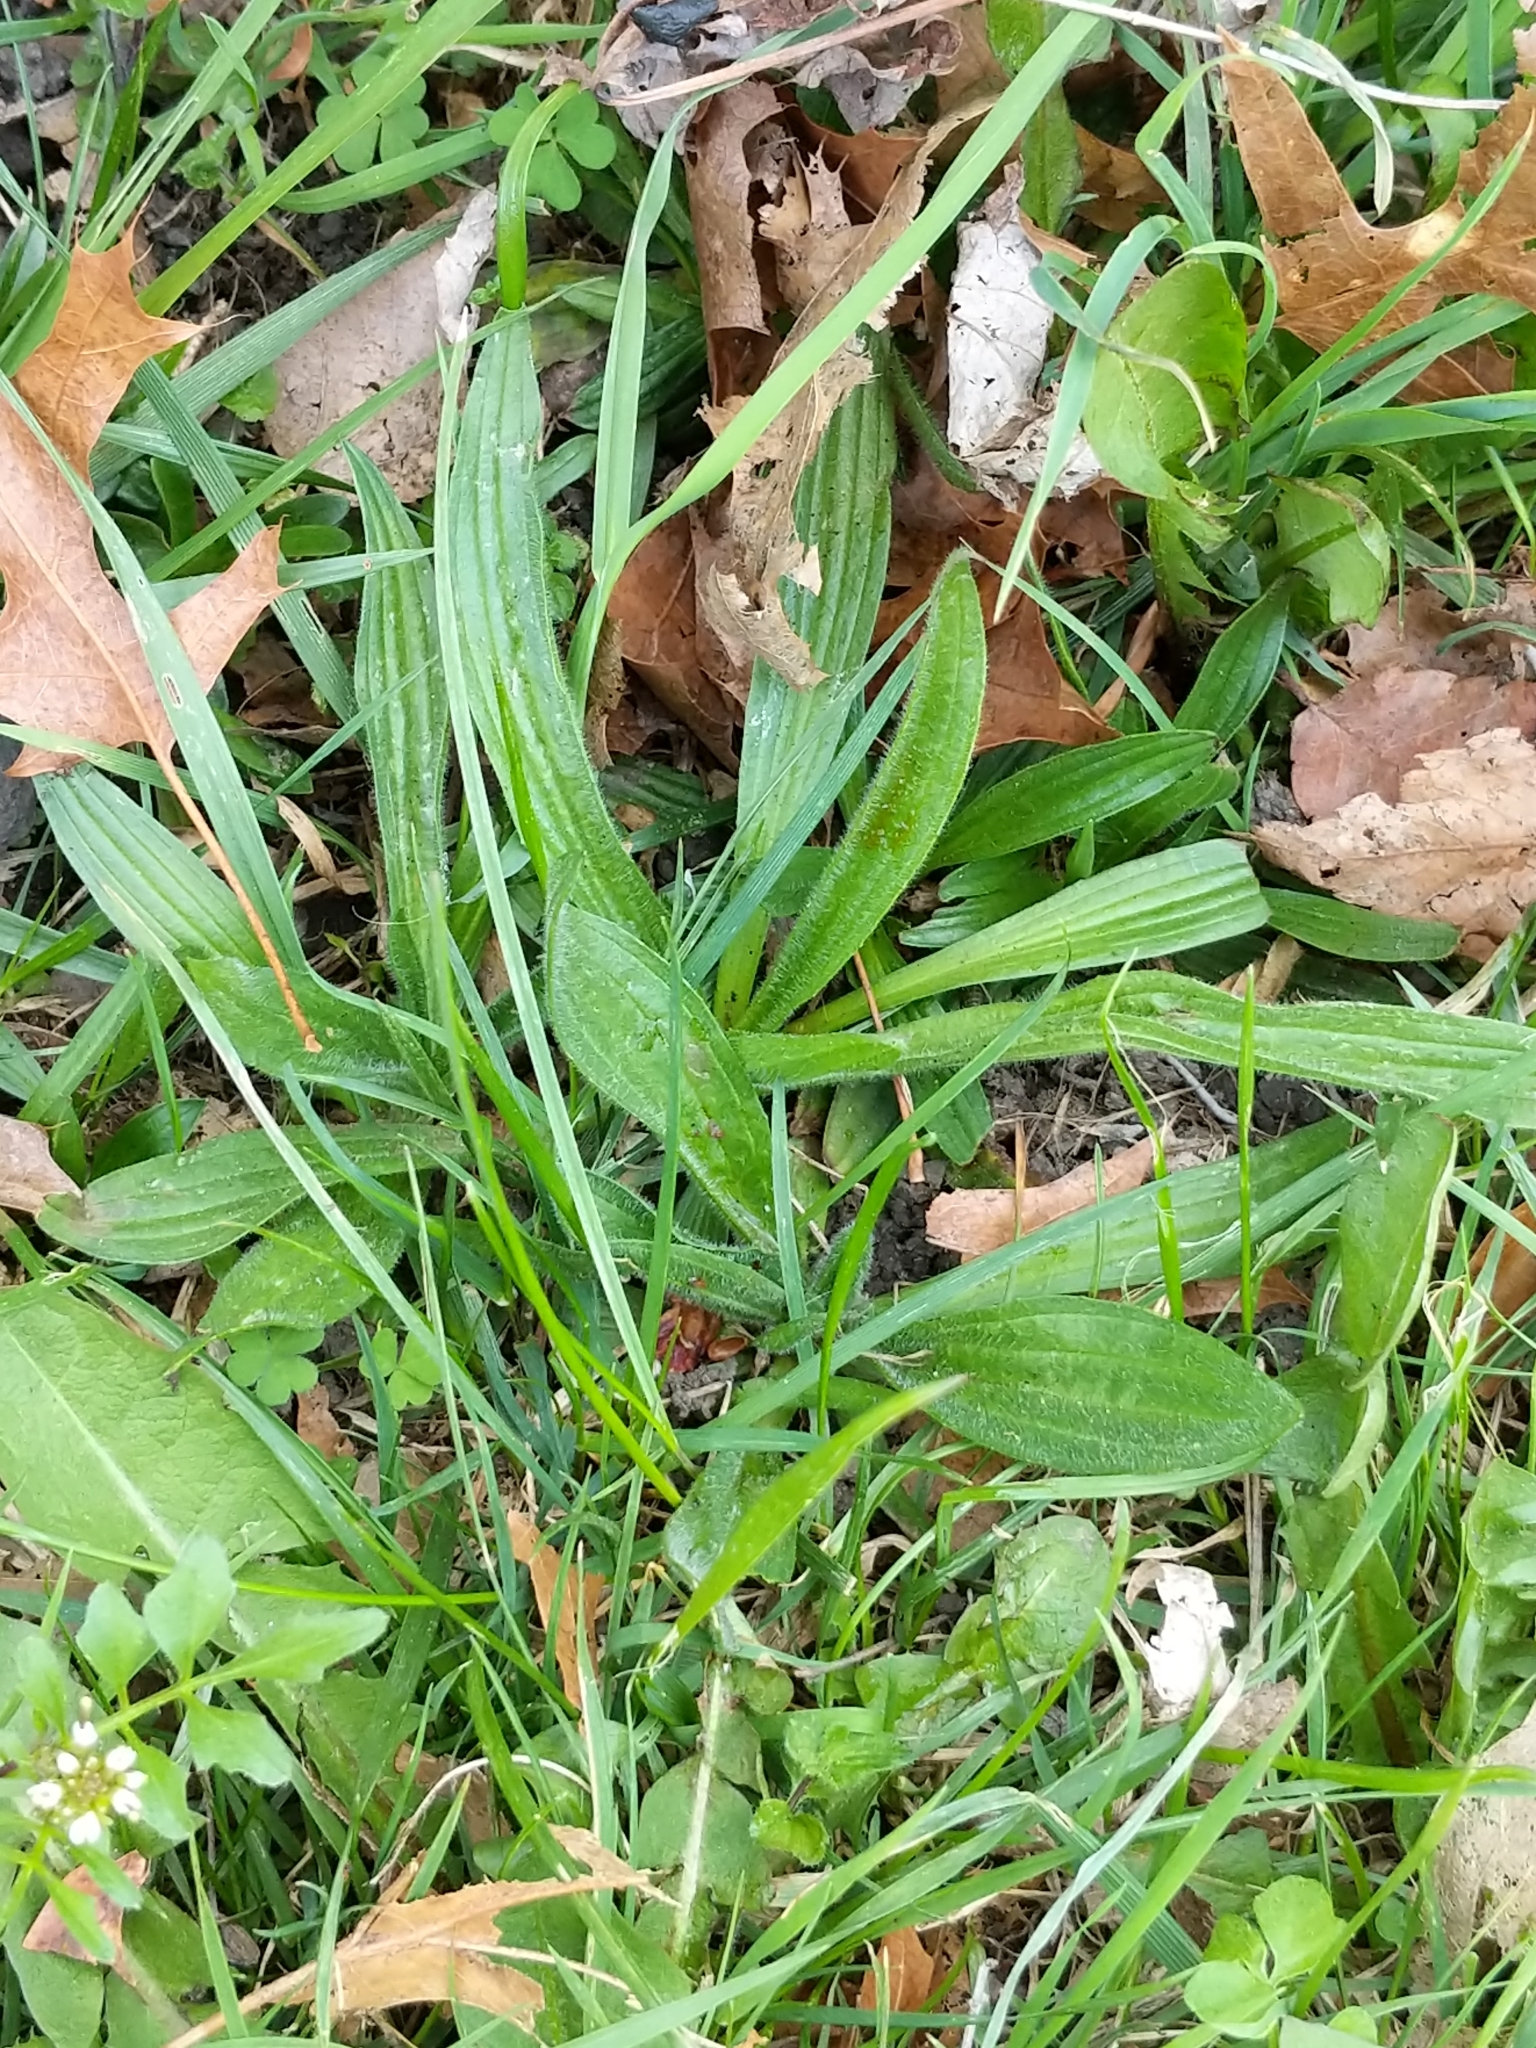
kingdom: Plantae
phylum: Tracheophyta
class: Magnoliopsida
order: Lamiales
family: Plantaginaceae
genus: Plantago
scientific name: Plantago lanceolata
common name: Ribwort plantain
